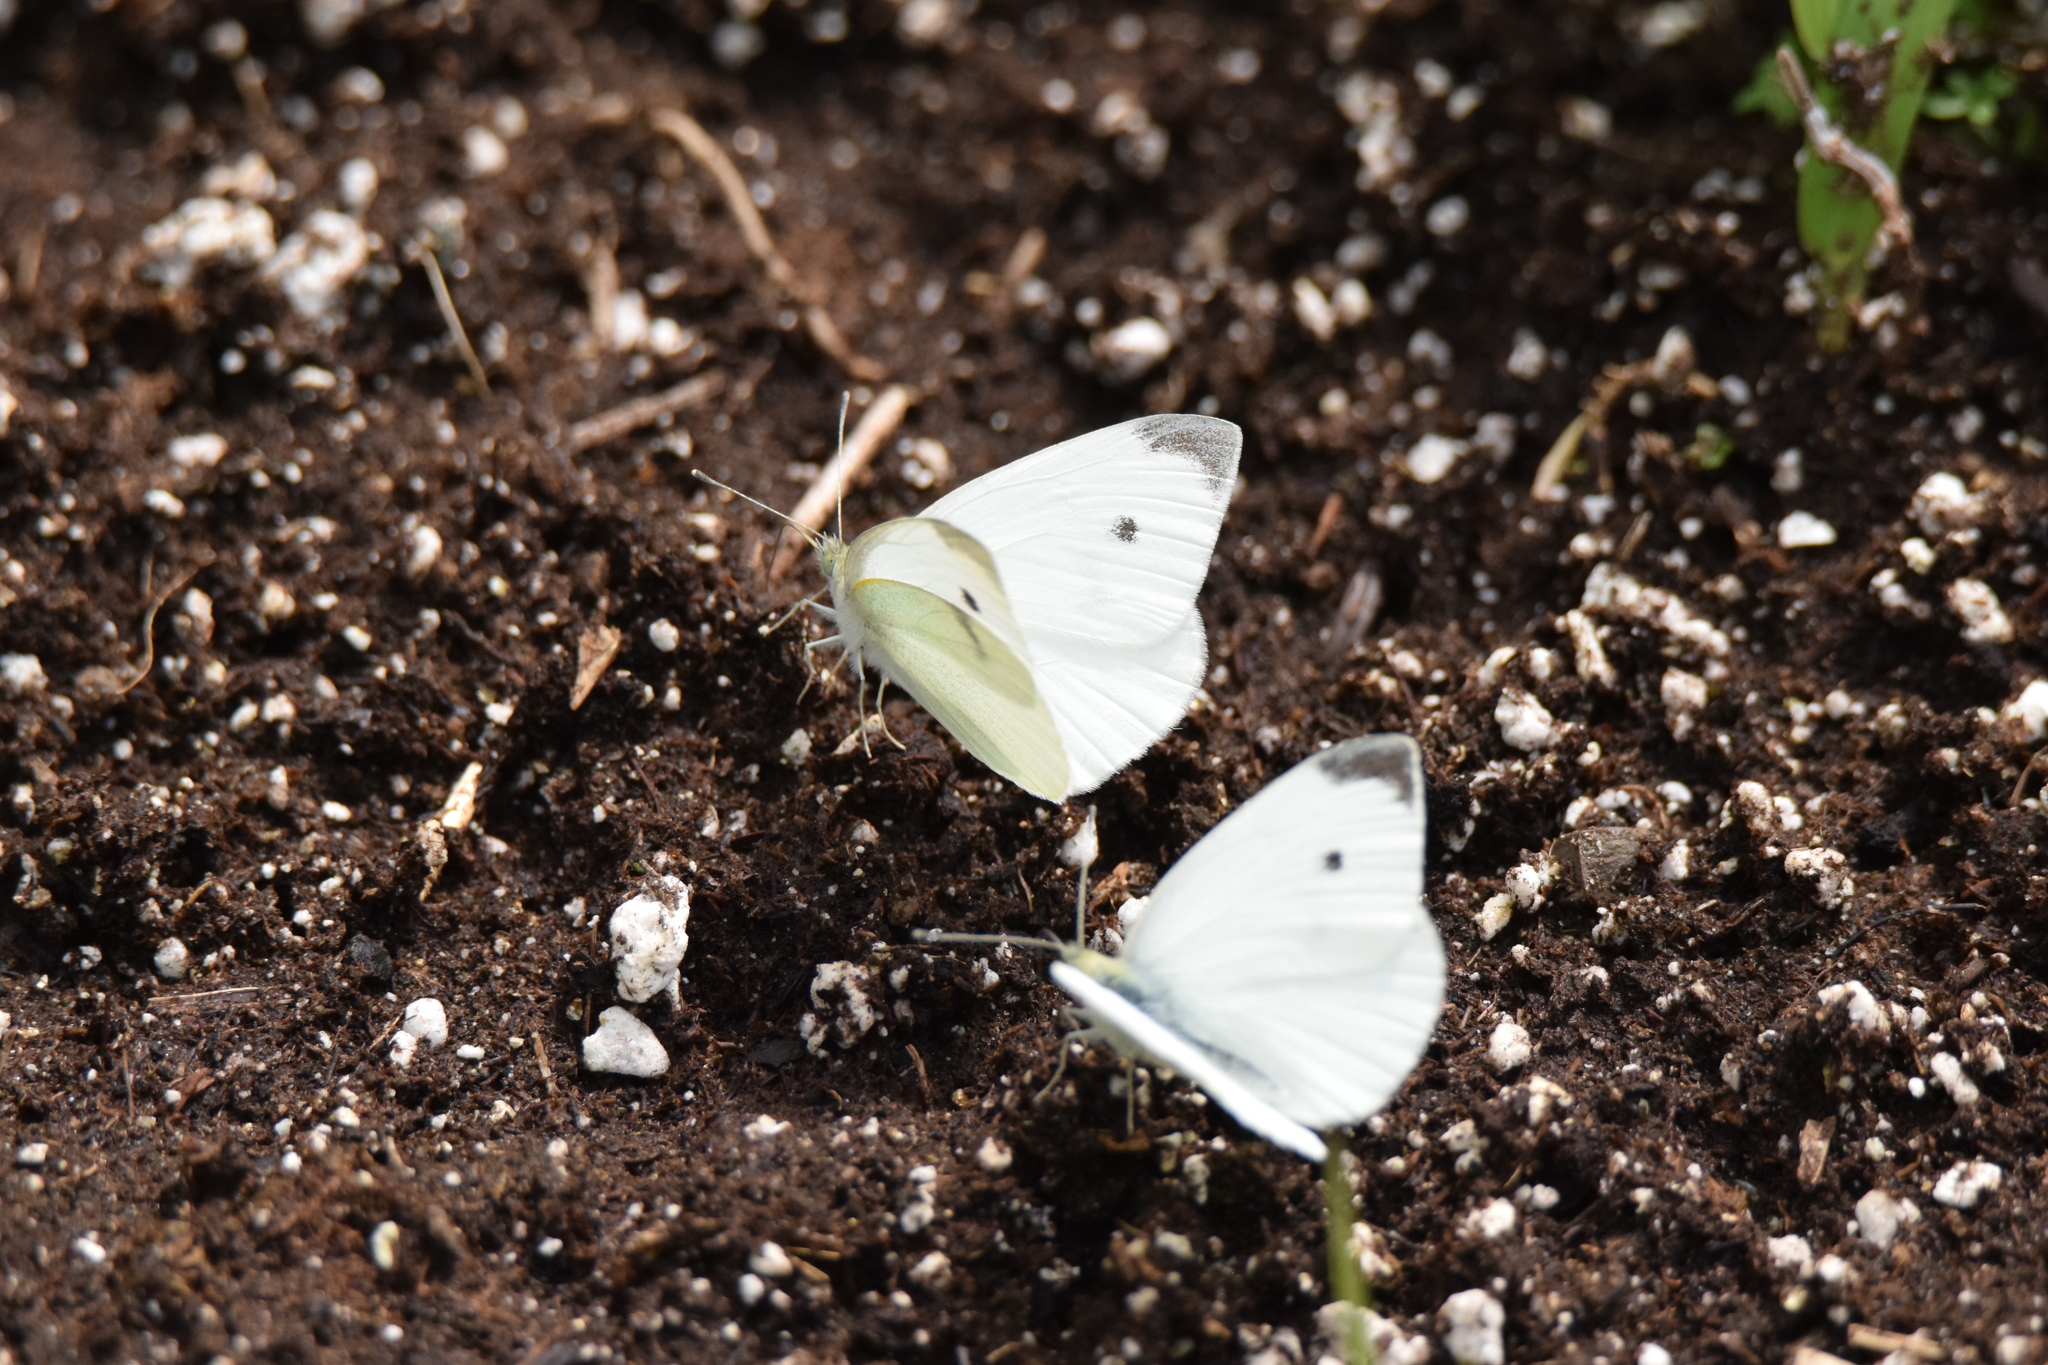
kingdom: Animalia
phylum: Arthropoda
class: Insecta
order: Lepidoptera
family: Pieridae
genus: Pieris
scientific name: Pieris rapae
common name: Small white
